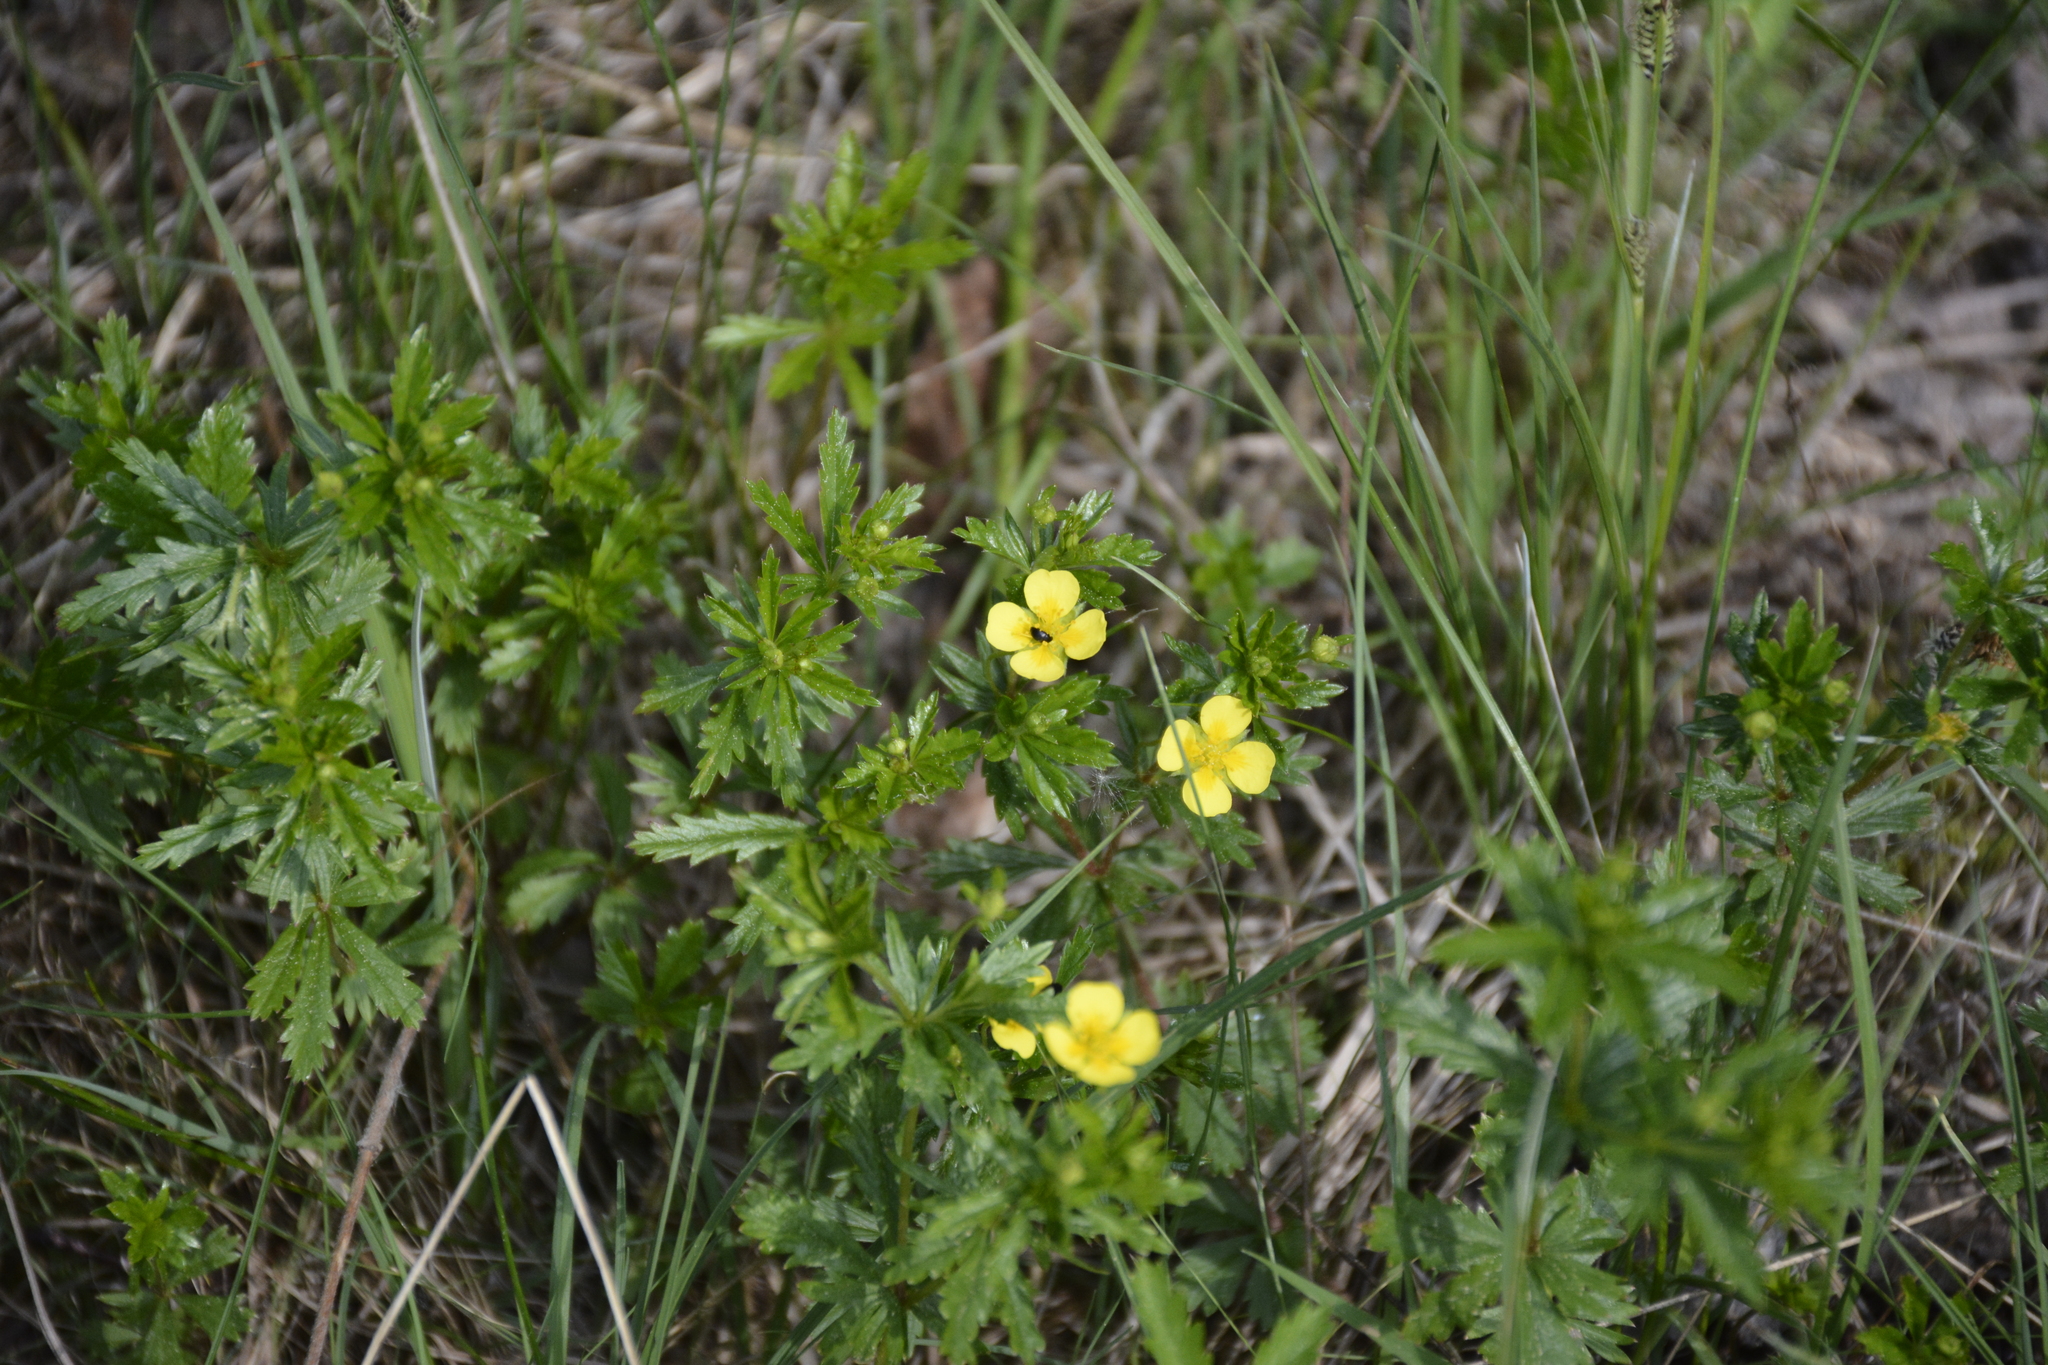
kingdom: Plantae
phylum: Tracheophyta
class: Magnoliopsida
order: Rosales
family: Rosaceae
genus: Potentilla
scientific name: Potentilla erecta
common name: Tormentil
